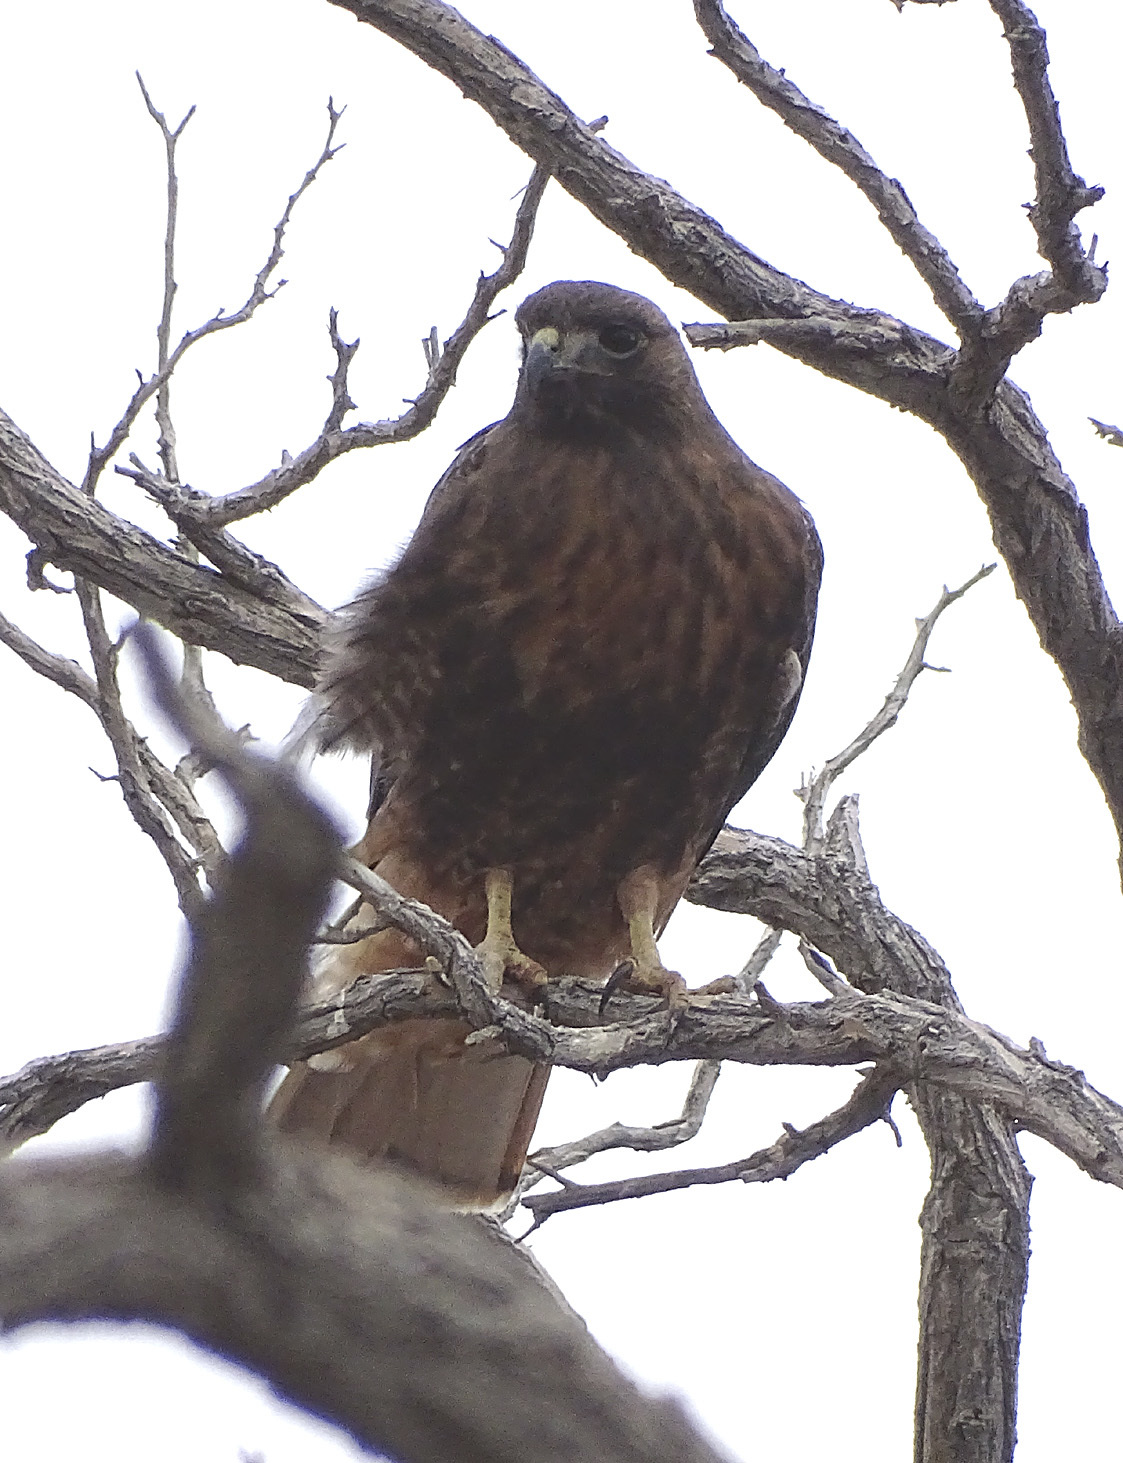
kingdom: Animalia
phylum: Chordata
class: Aves
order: Accipitriformes
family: Accipitridae
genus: Buteo
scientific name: Buteo jamaicensis
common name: Red-tailed hawk
